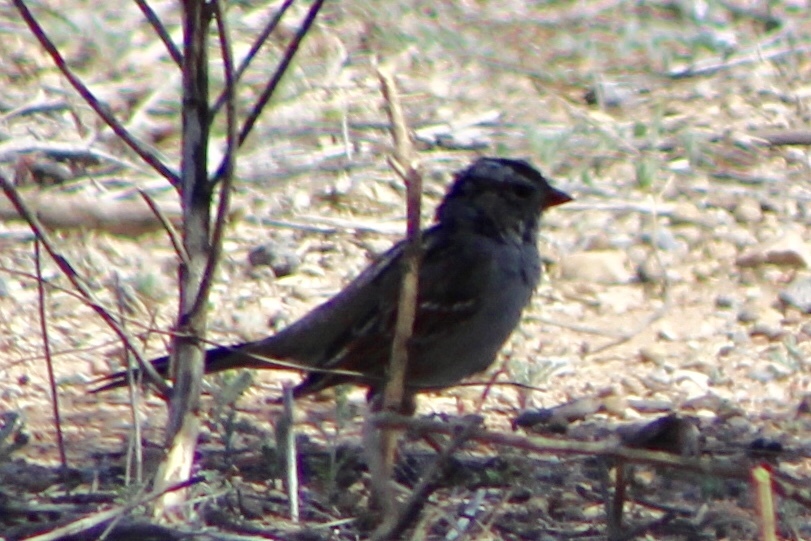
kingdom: Animalia
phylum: Chordata
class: Aves
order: Passeriformes
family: Passerellidae
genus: Zonotrichia
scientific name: Zonotrichia leucophrys
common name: White-crowned sparrow
